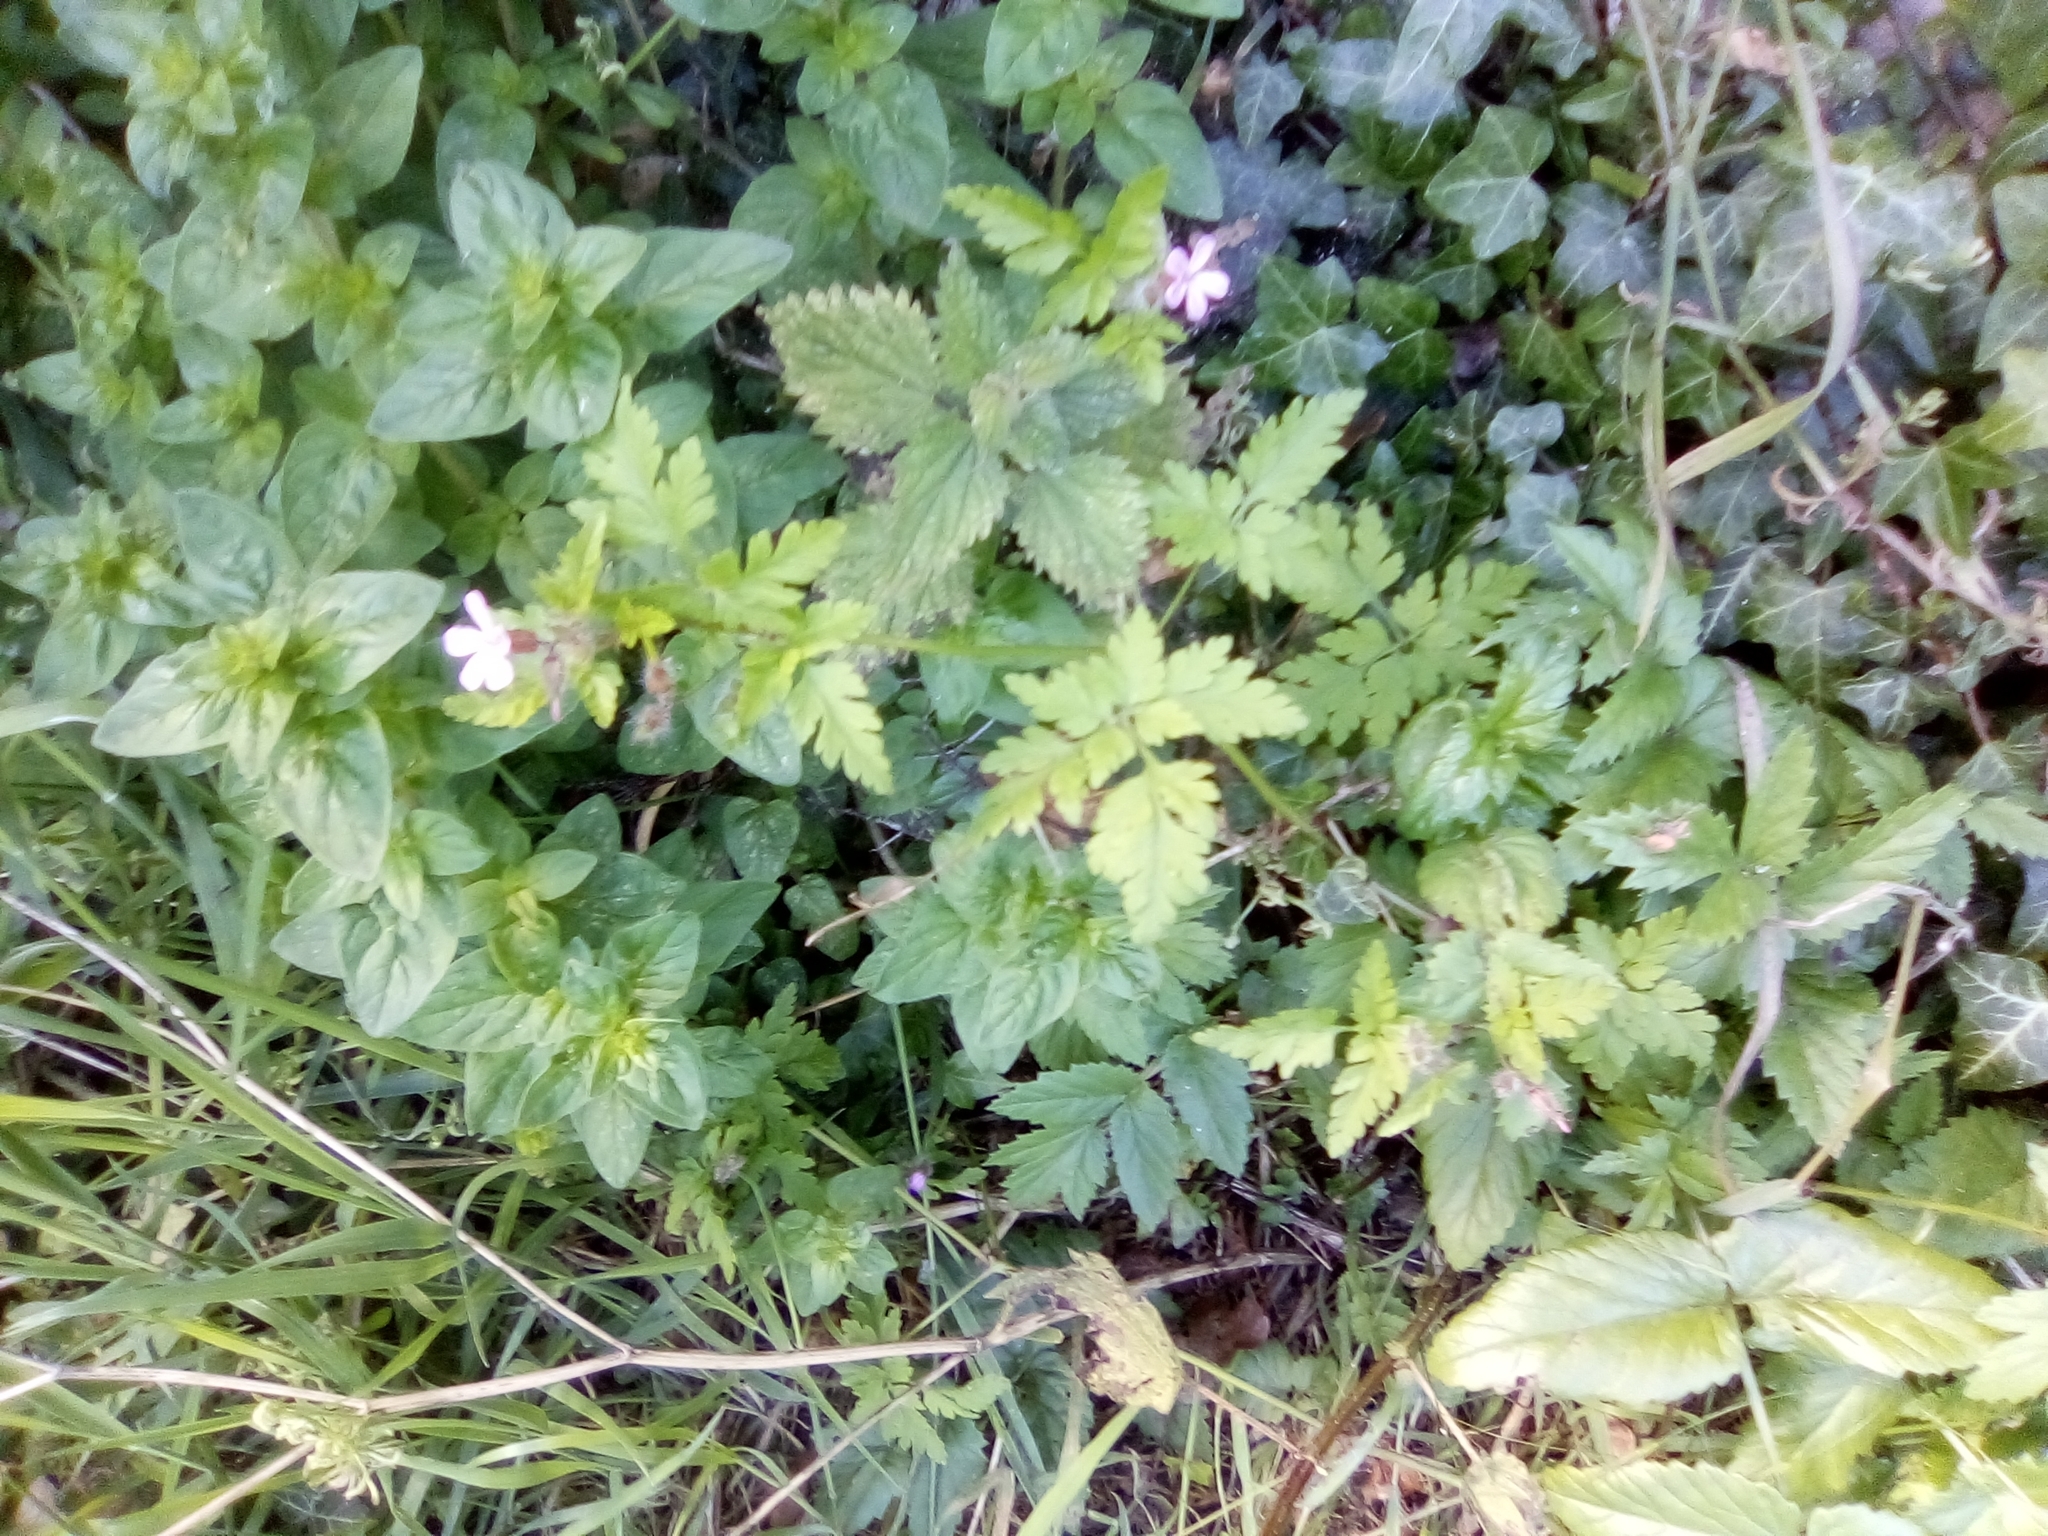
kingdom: Plantae
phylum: Tracheophyta
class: Magnoliopsida
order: Geraniales
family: Geraniaceae
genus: Geranium
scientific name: Geranium robertianum
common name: Herb-robert
